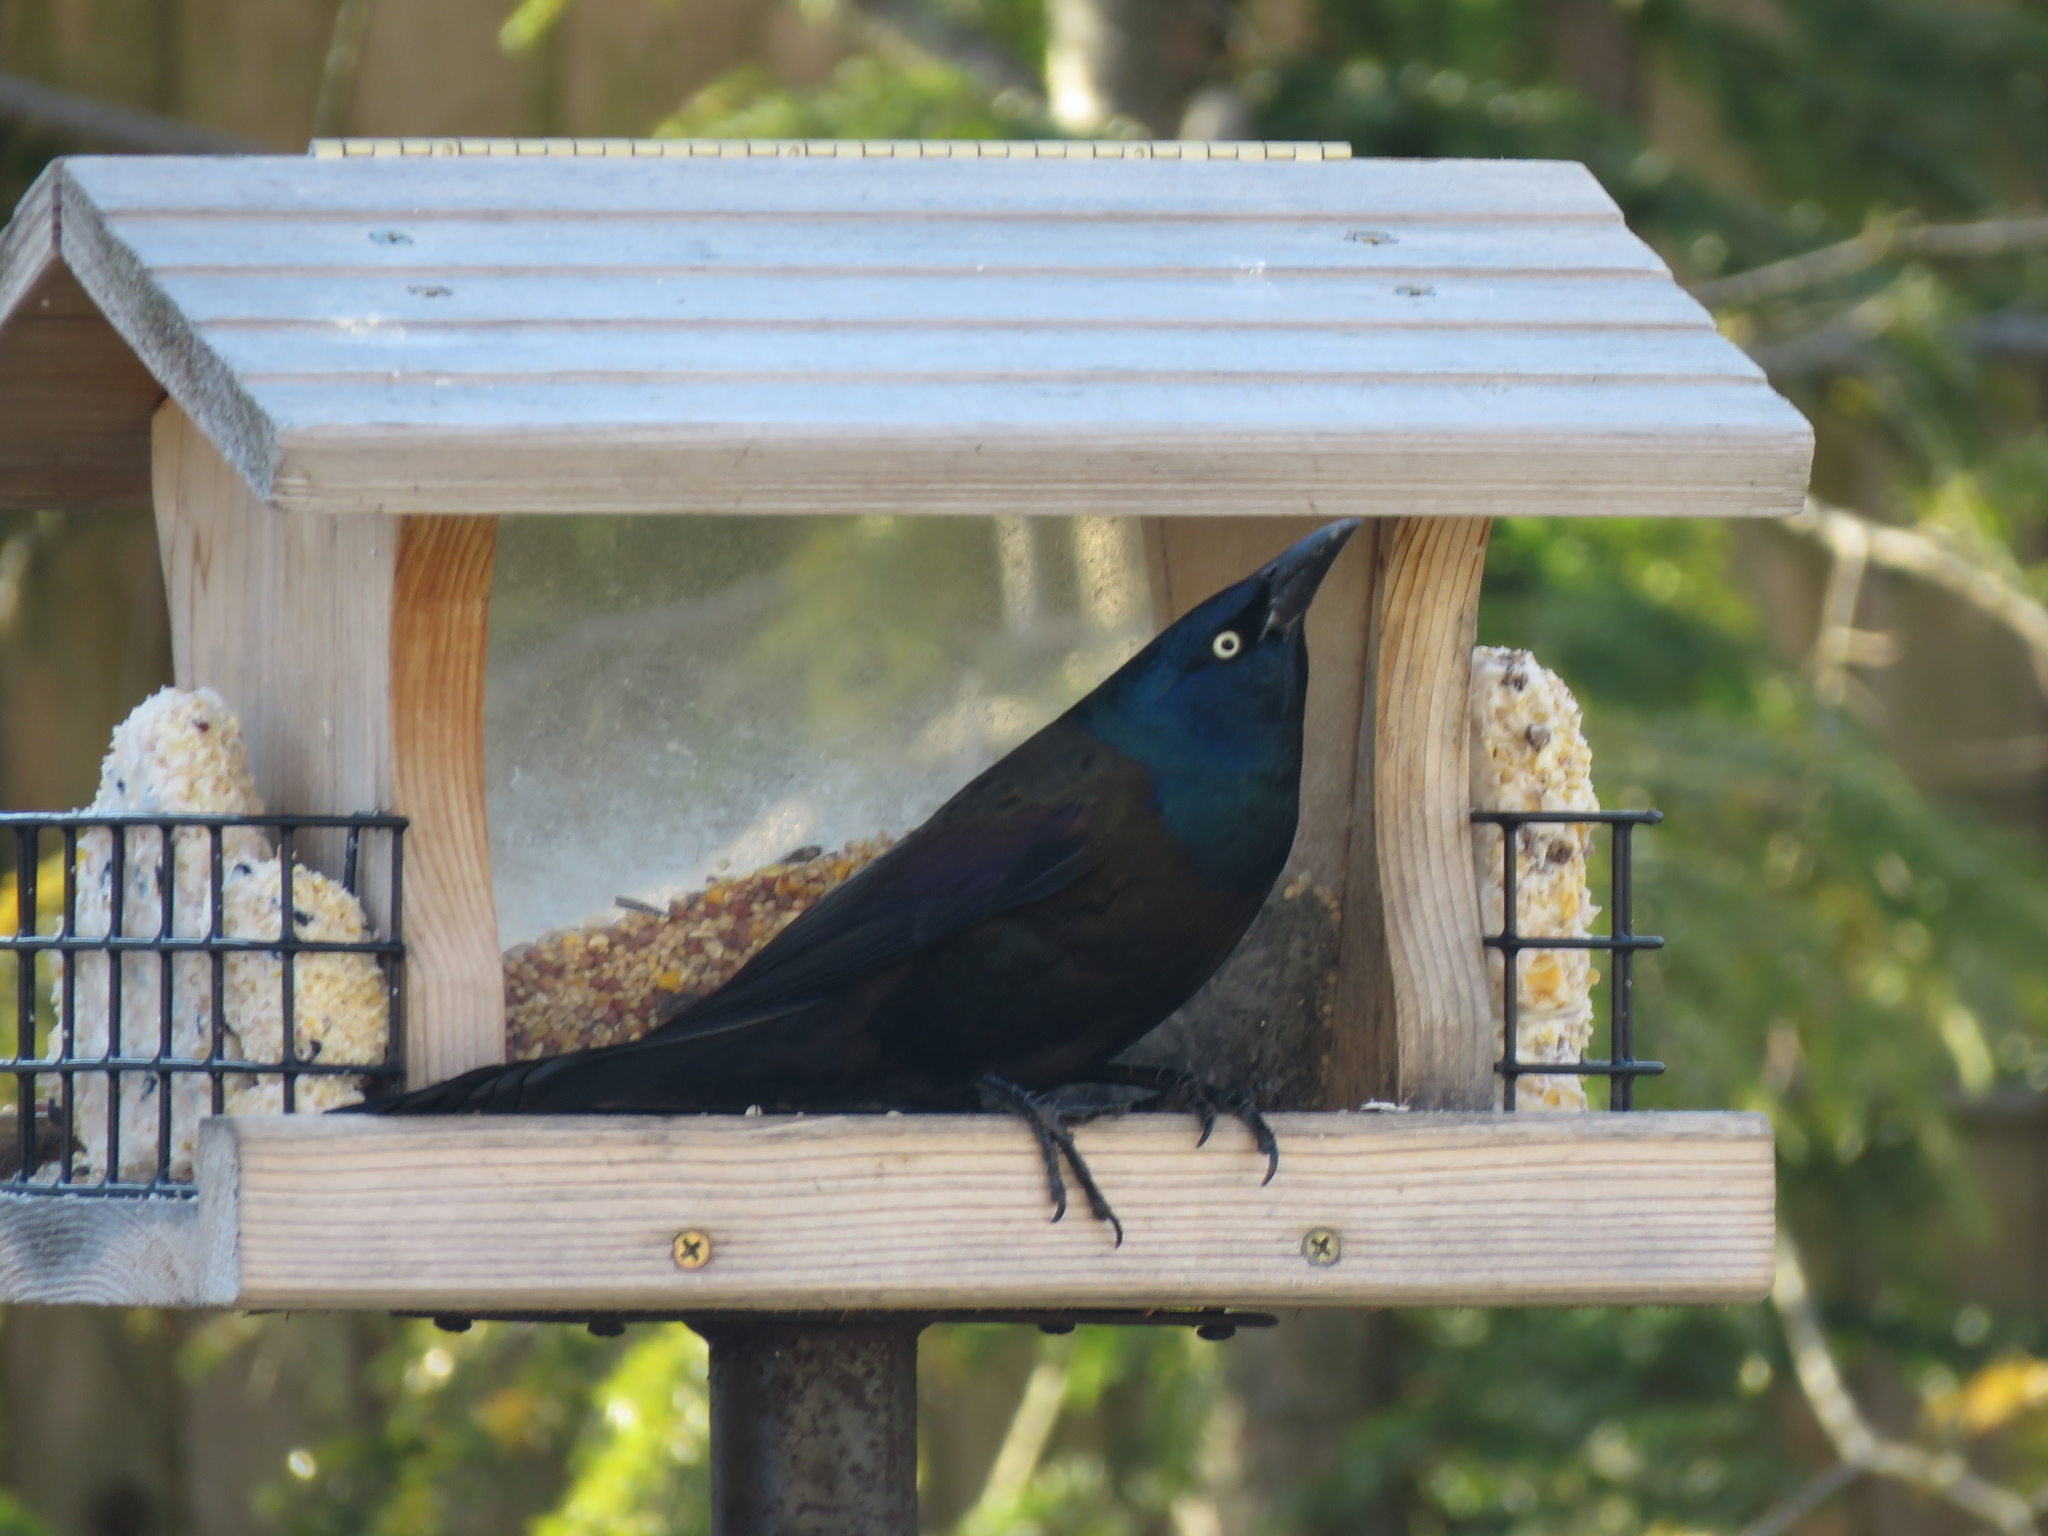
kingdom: Animalia
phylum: Chordata
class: Aves
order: Passeriformes
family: Icteridae
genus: Quiscalus
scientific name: Quiscalus quiscula
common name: Common grackle
